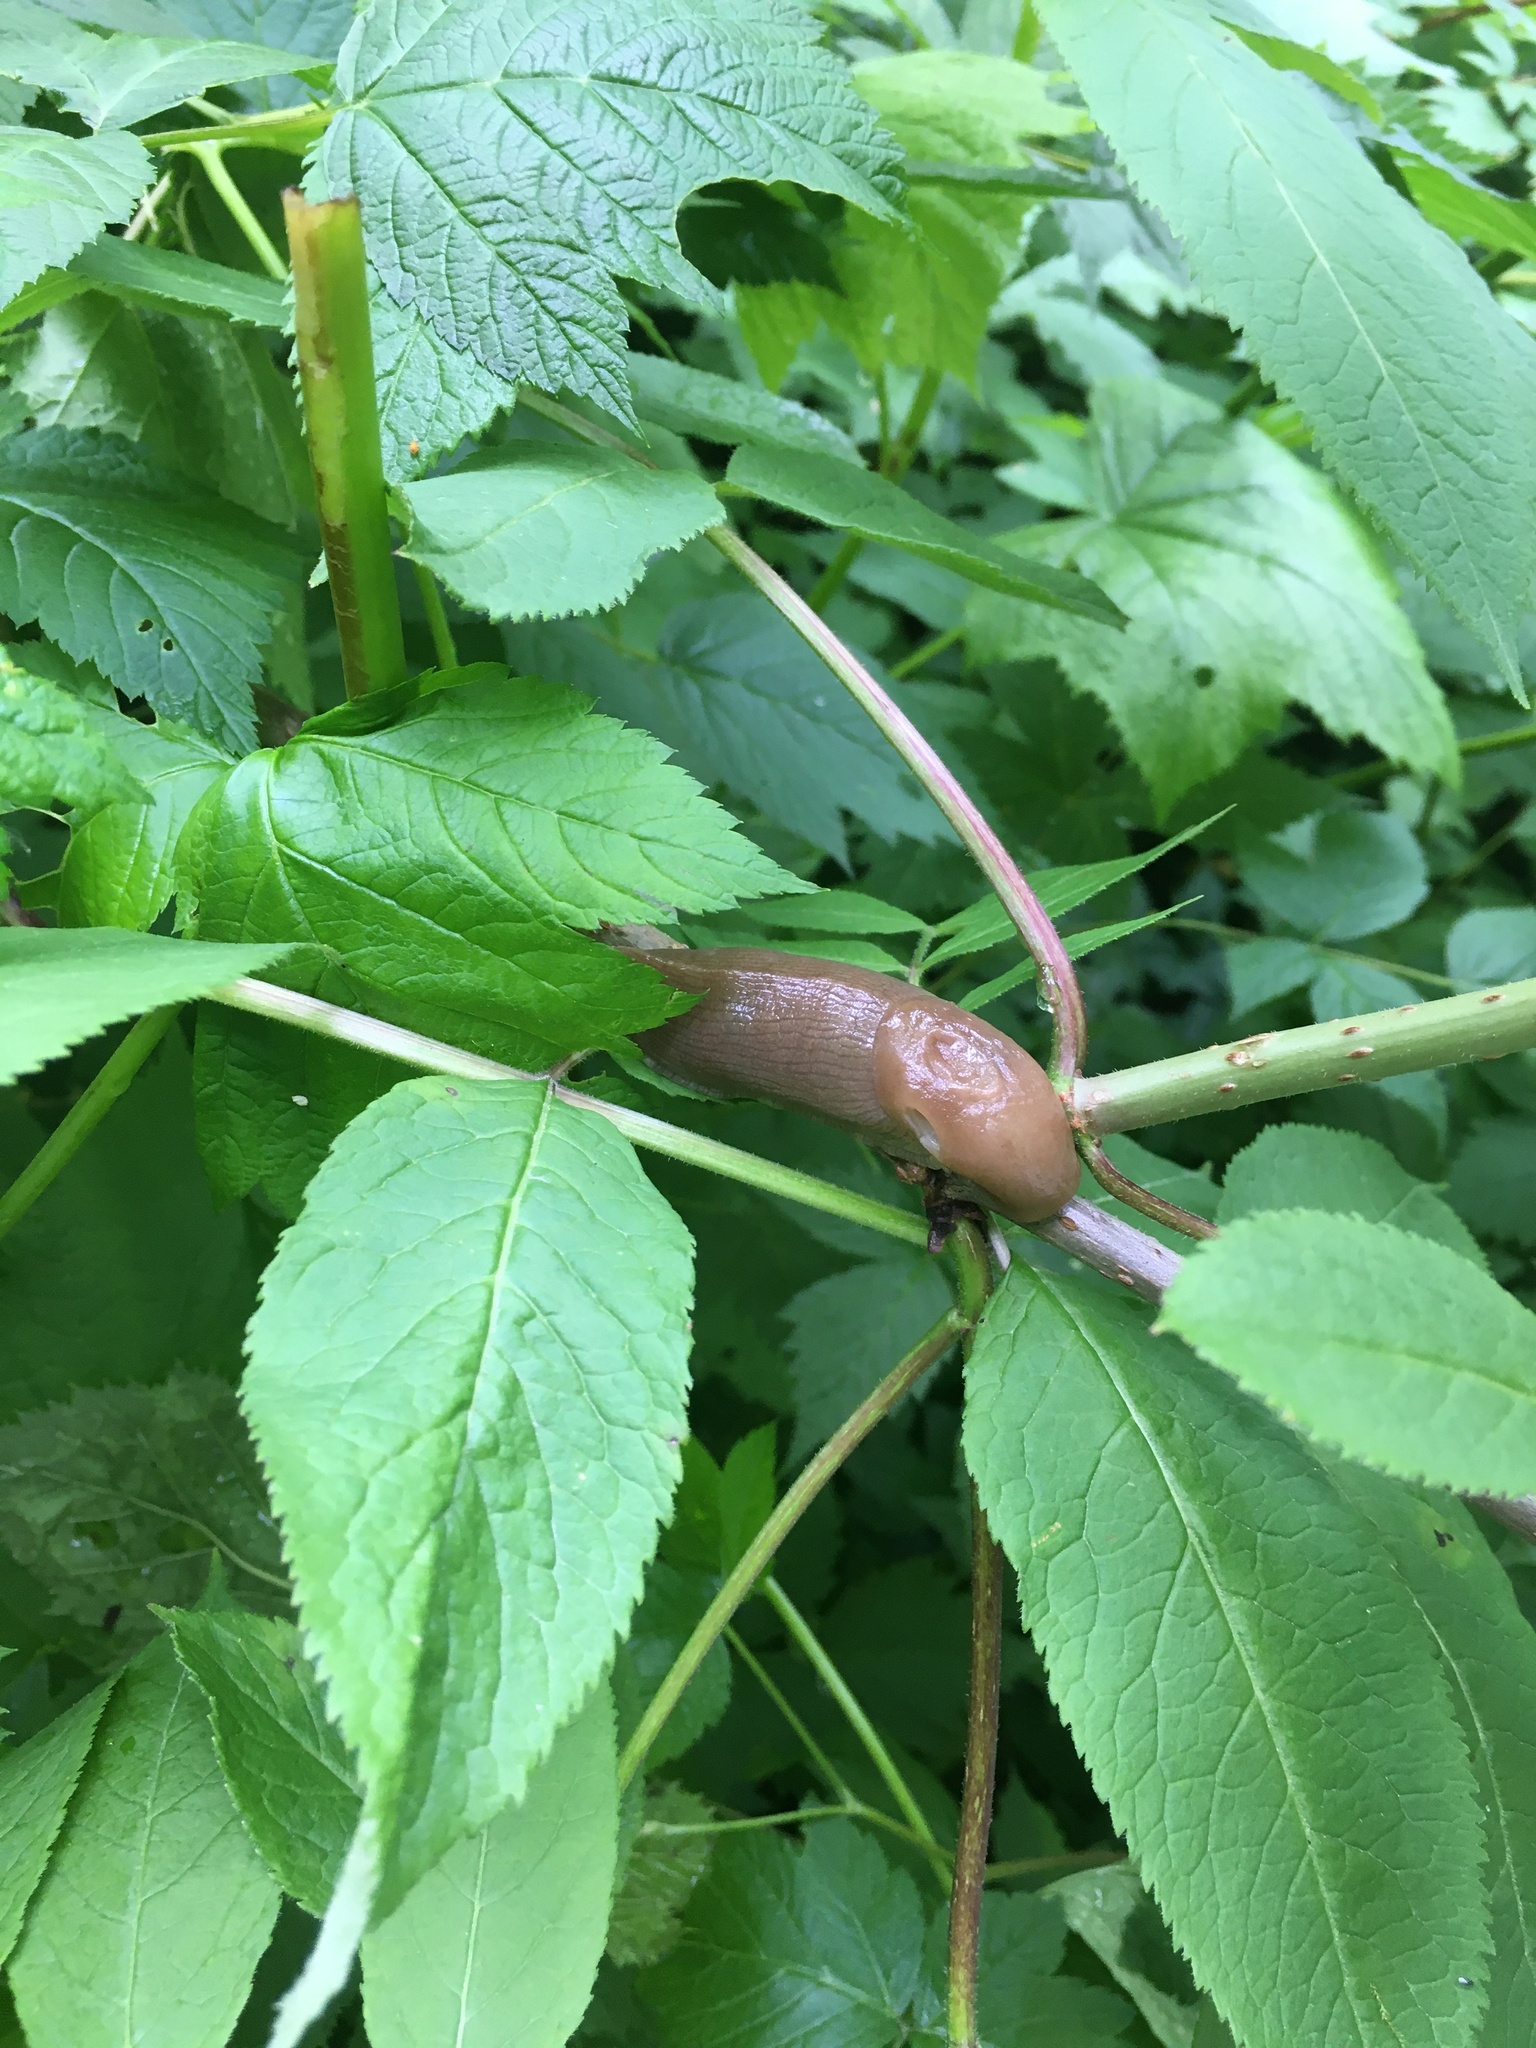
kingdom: Animalia
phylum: Mollusca
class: Gastropoda
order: Stylommatophora
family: Ariolimacidae
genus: Ariolimax
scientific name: Ariolimax columbianus
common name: Pacific banana slug
